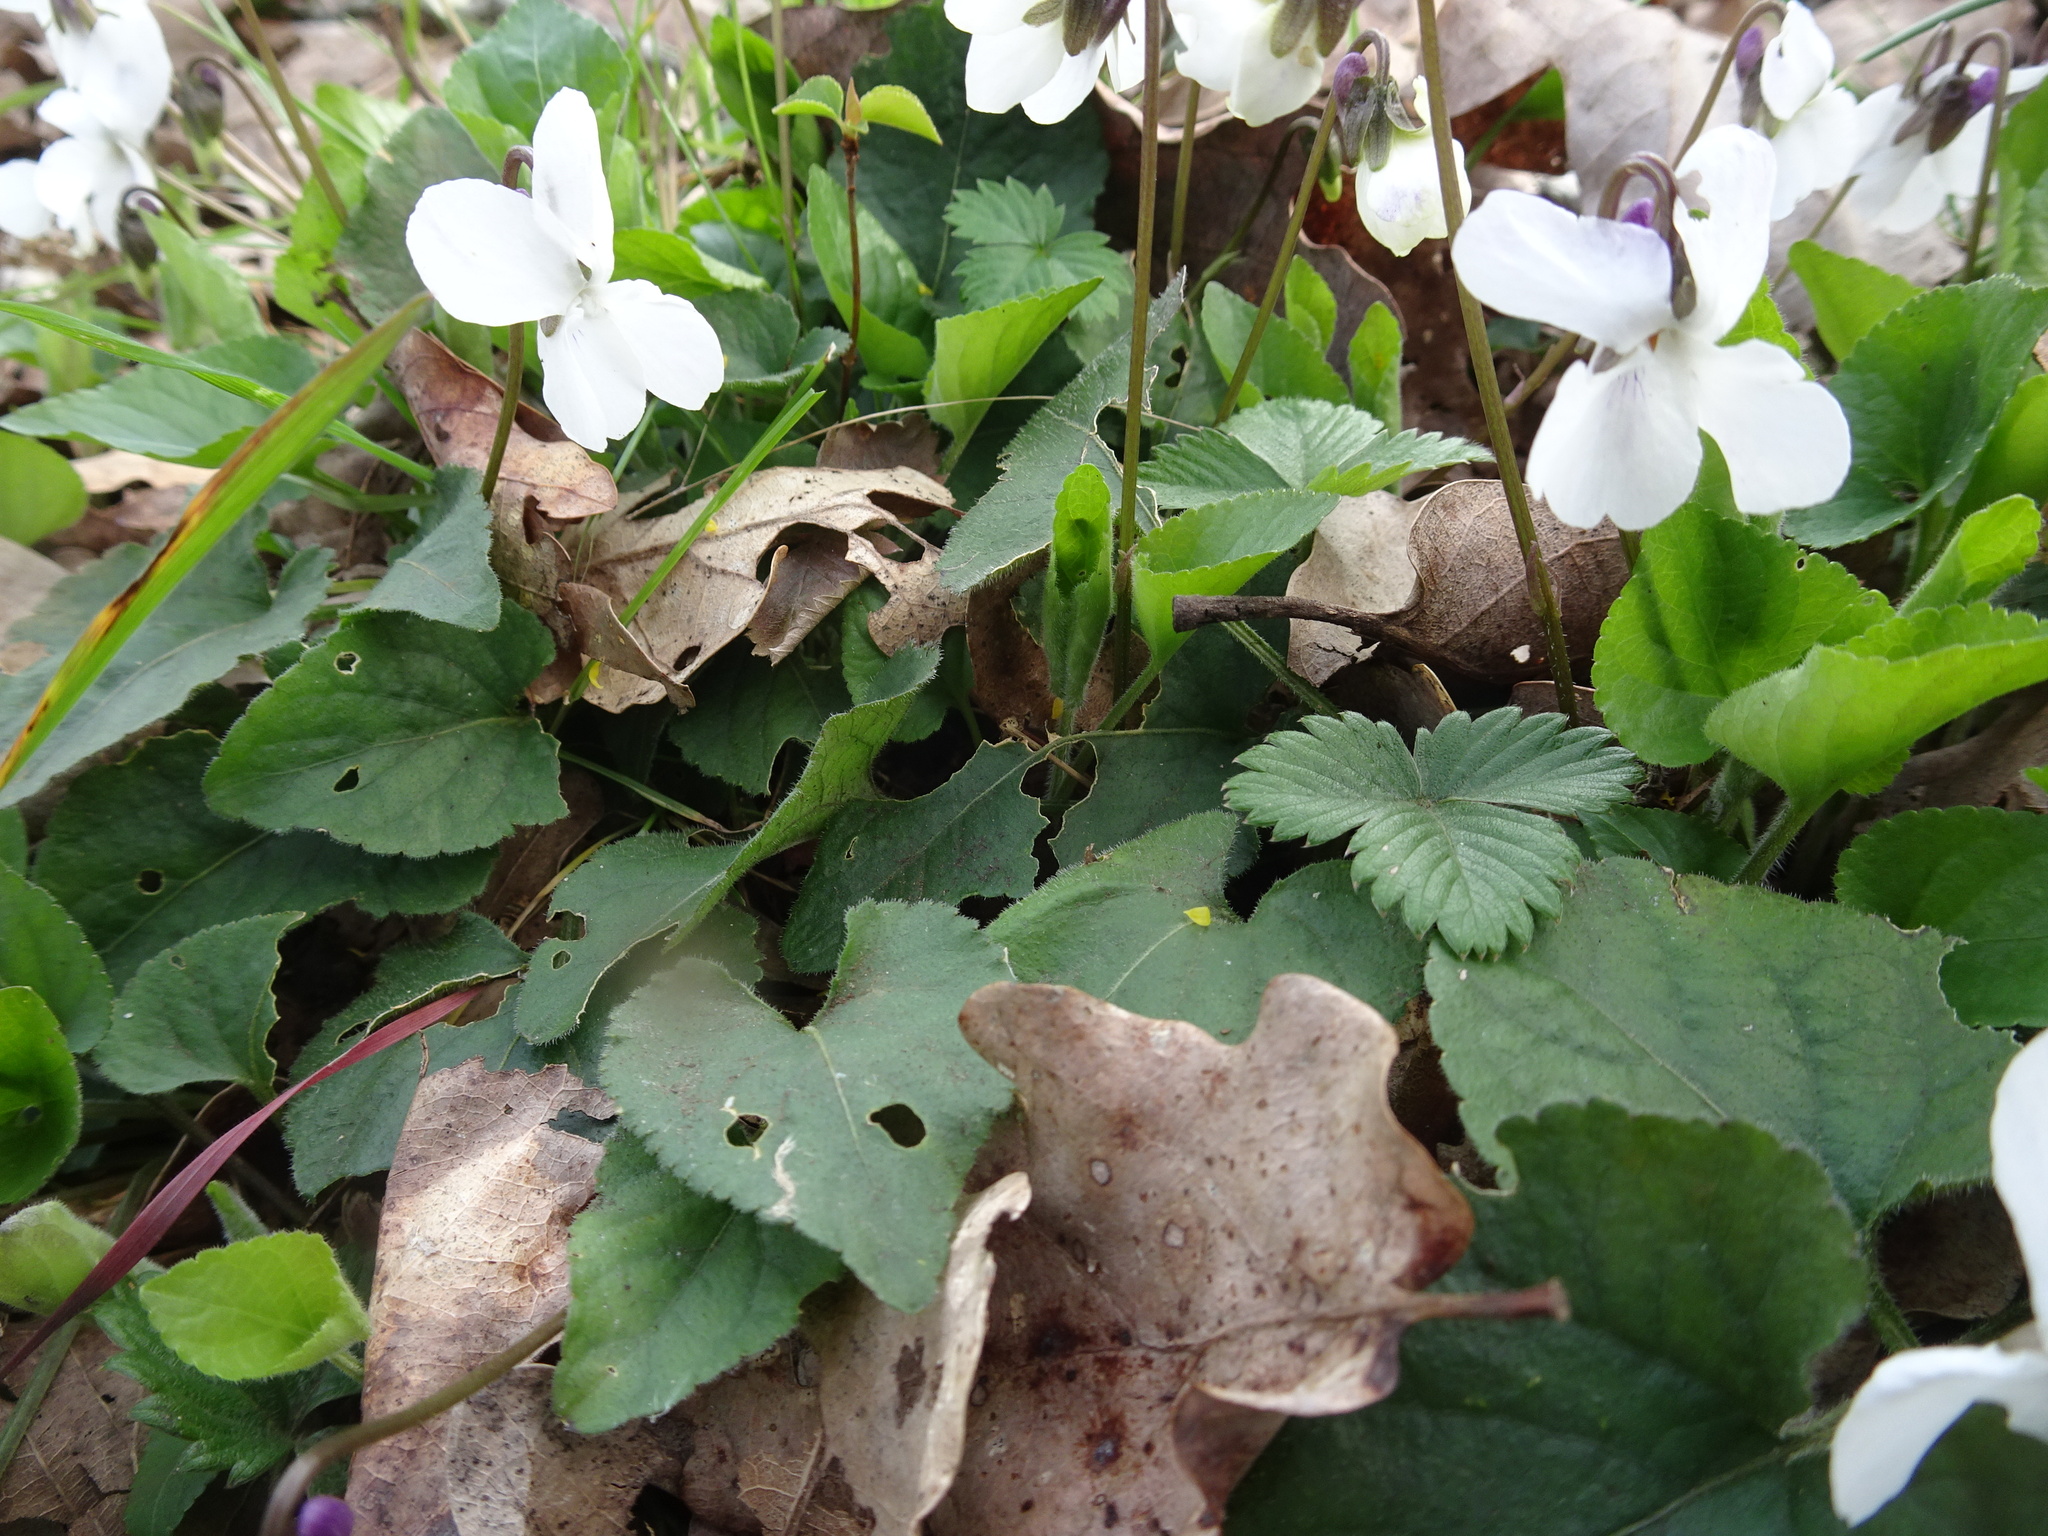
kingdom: Plantae
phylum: Tracheophyta
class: Magnoliopsida
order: Malpighiales
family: Violaceae
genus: Viola
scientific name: Viola odorata
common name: Sweet violet
